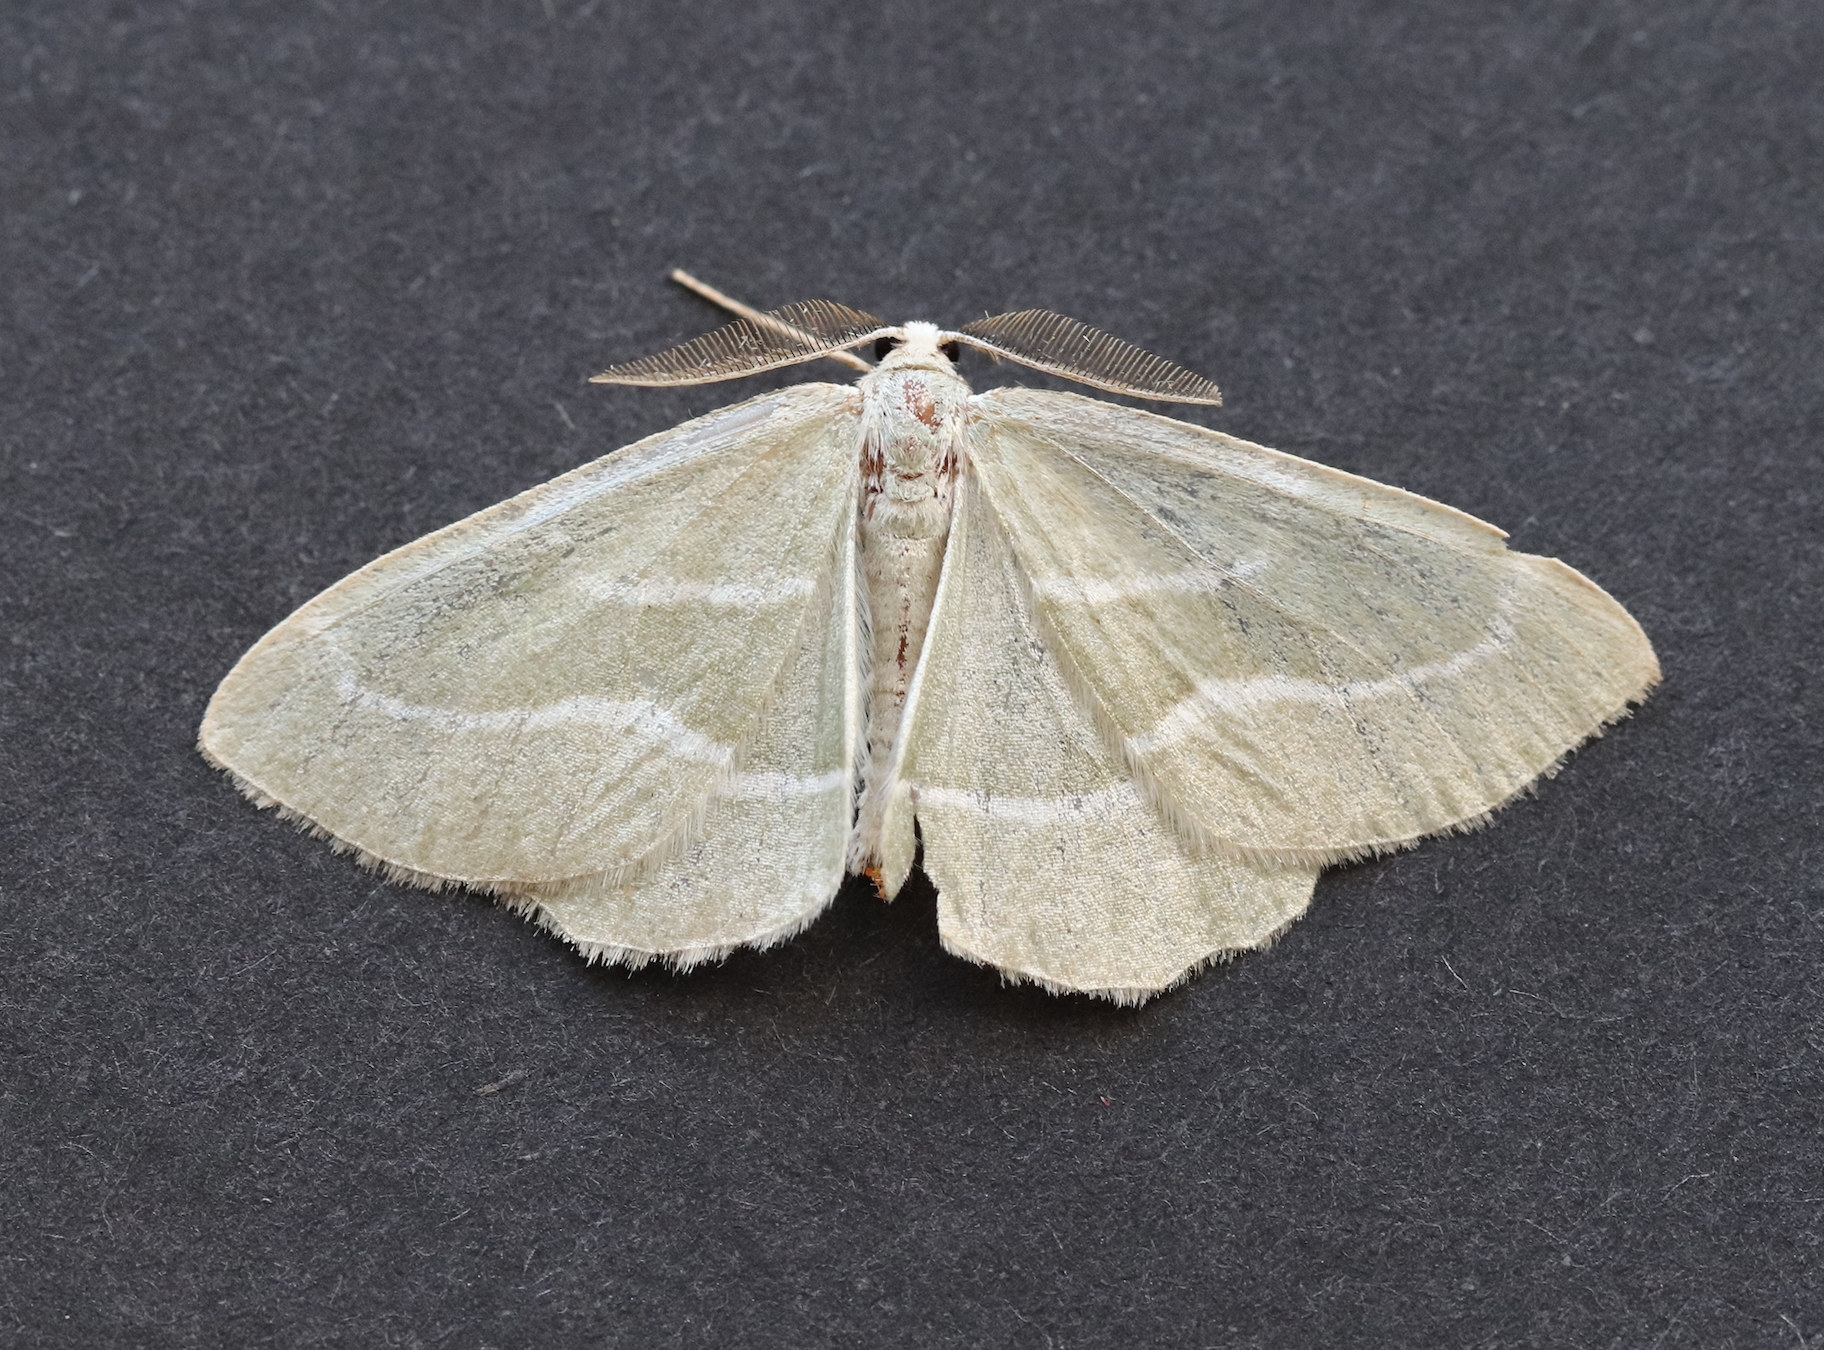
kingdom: Animalia
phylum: Arthropoda
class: Insecta
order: Lepidoptera
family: Geometridae
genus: Hylaea
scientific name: Hylaea fasciaria
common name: Barred red
